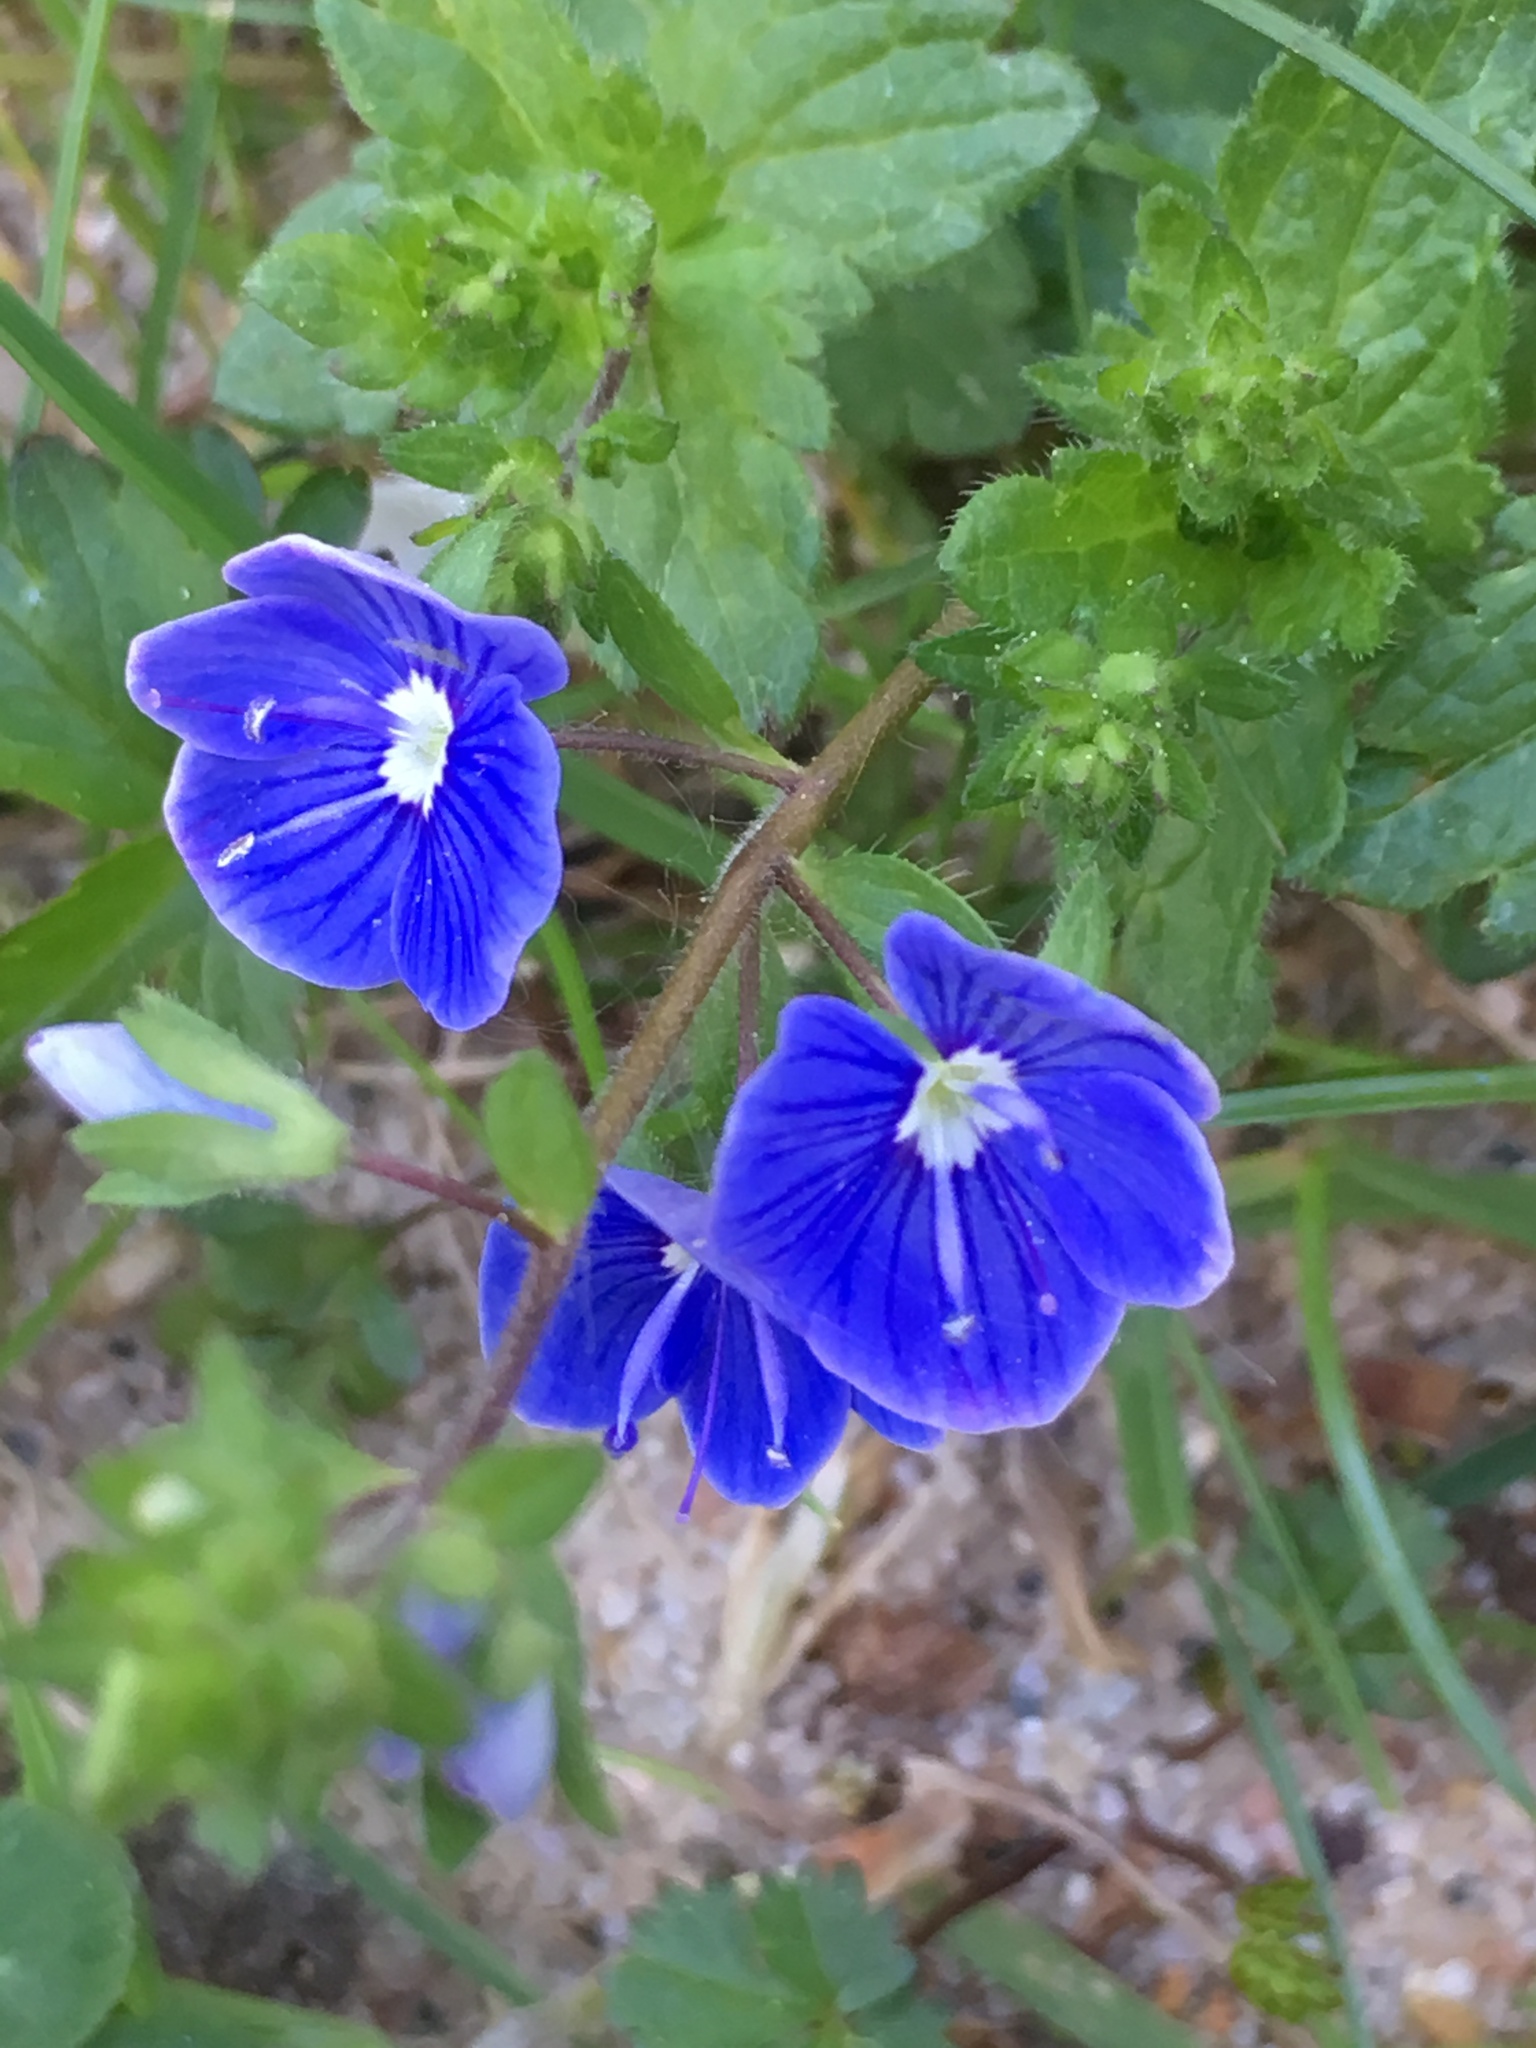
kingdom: Plantae
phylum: Tracheophyta
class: Magnoliopsida
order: Lamiales
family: Plantaginaceae
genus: Veronica
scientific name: Veronica chamaedrys
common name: Germander speedwell
